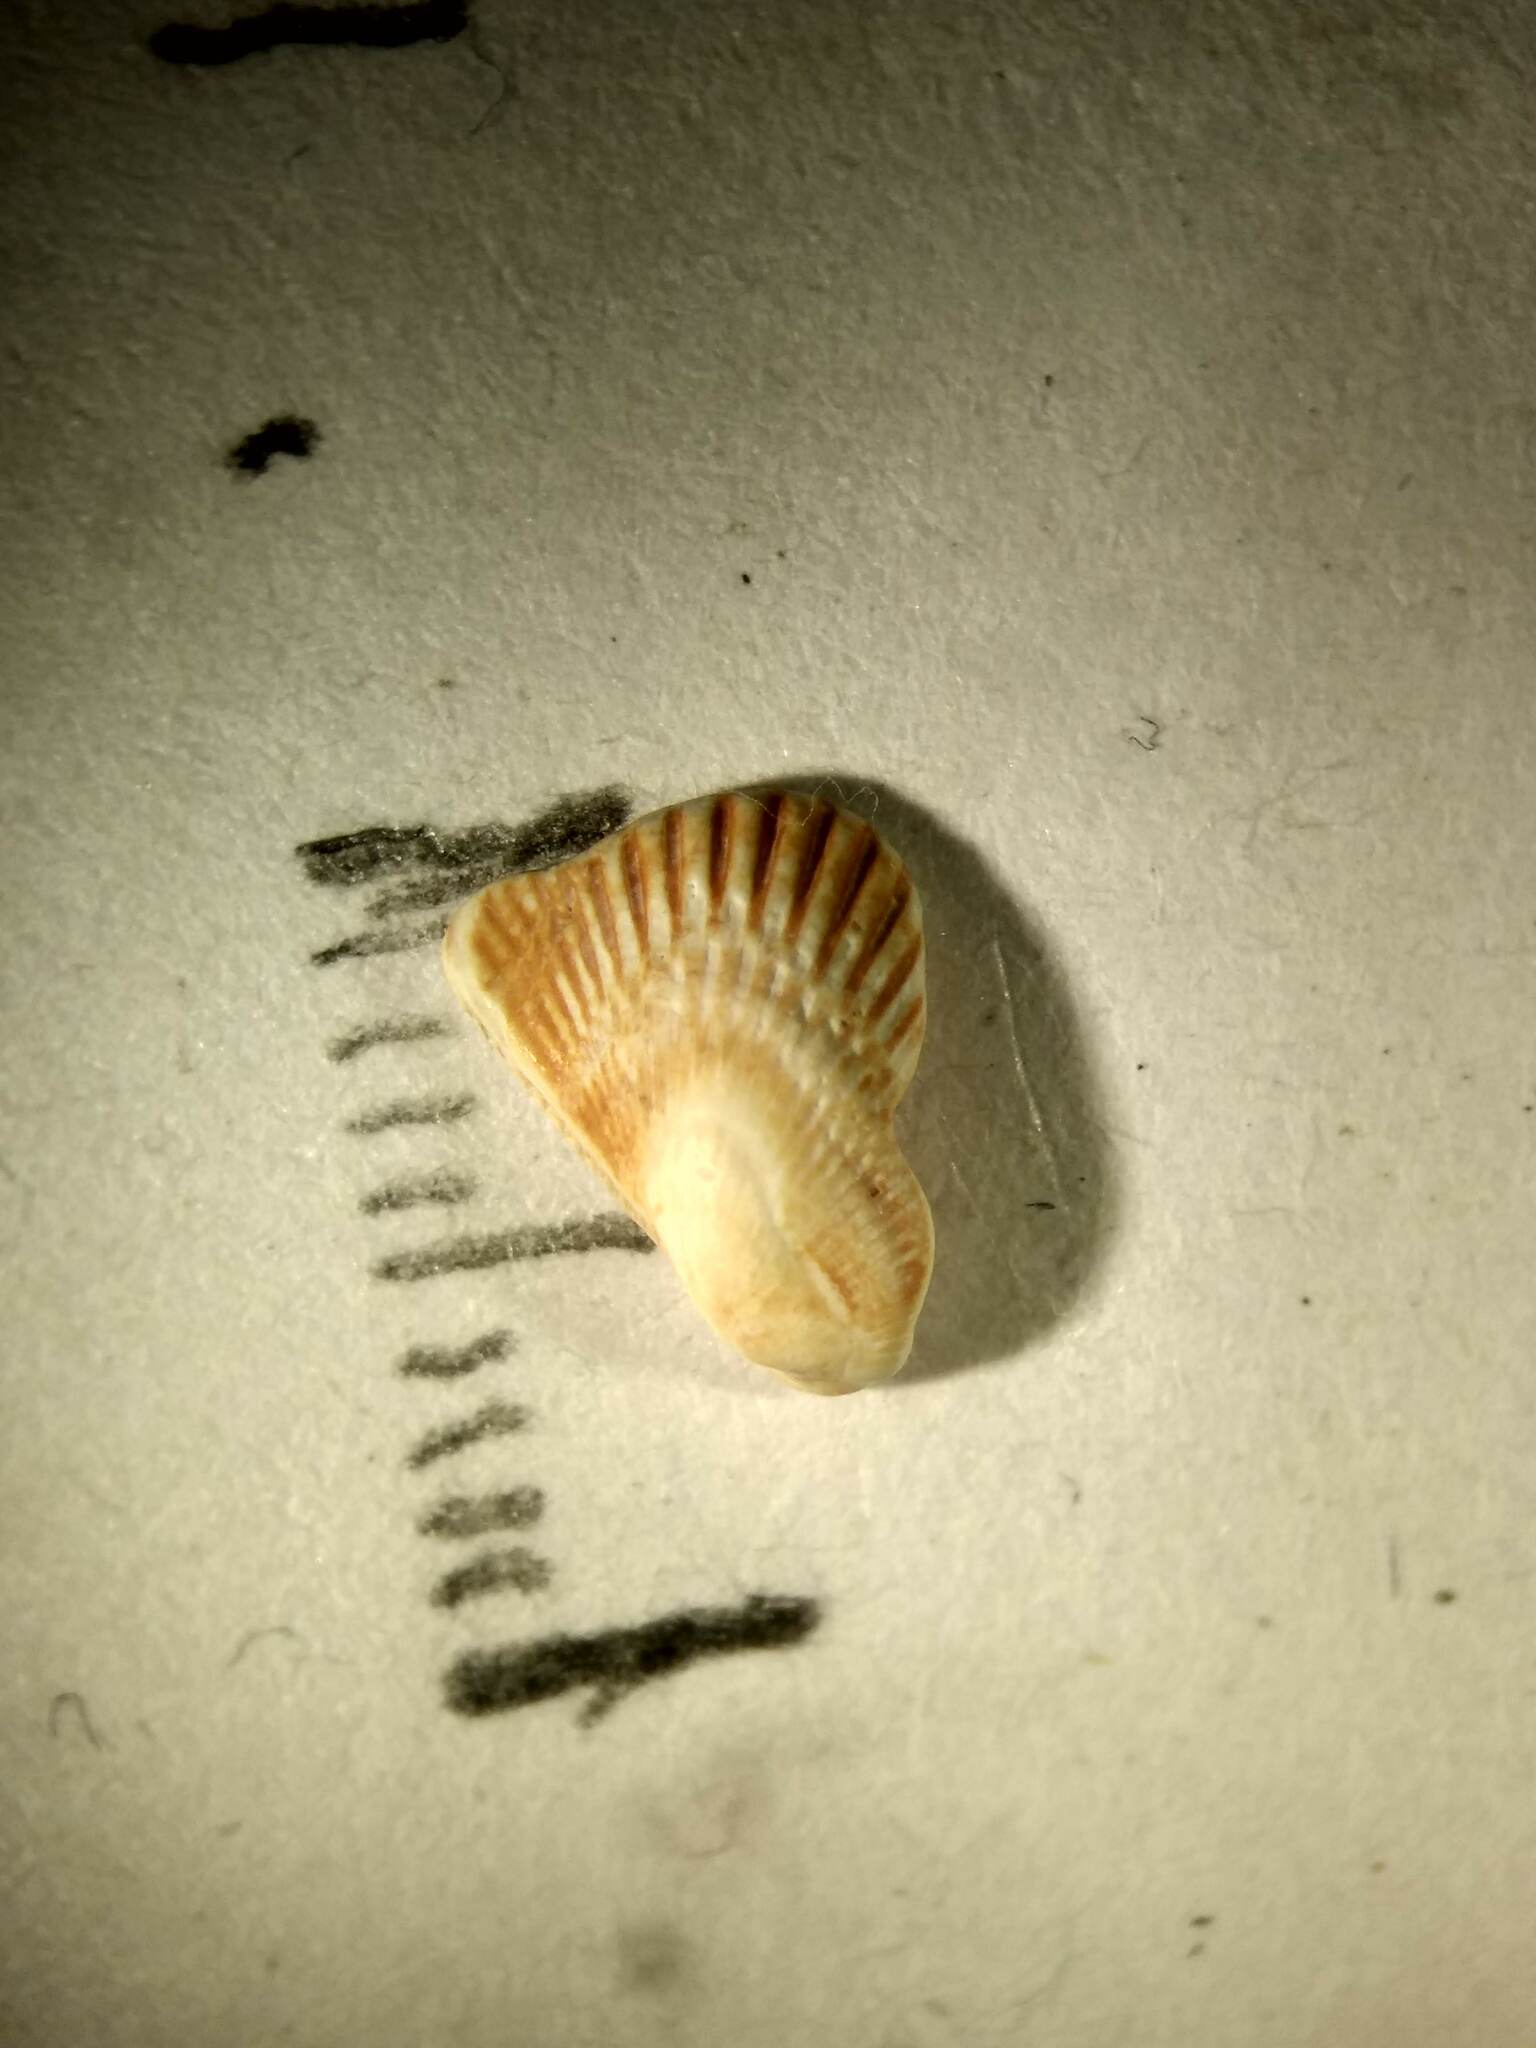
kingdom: Animalia
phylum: Mollusca
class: Bivalvia
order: Arcida
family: Arcidae
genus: Anadara
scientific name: Anadara transversa
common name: Transverse ark
